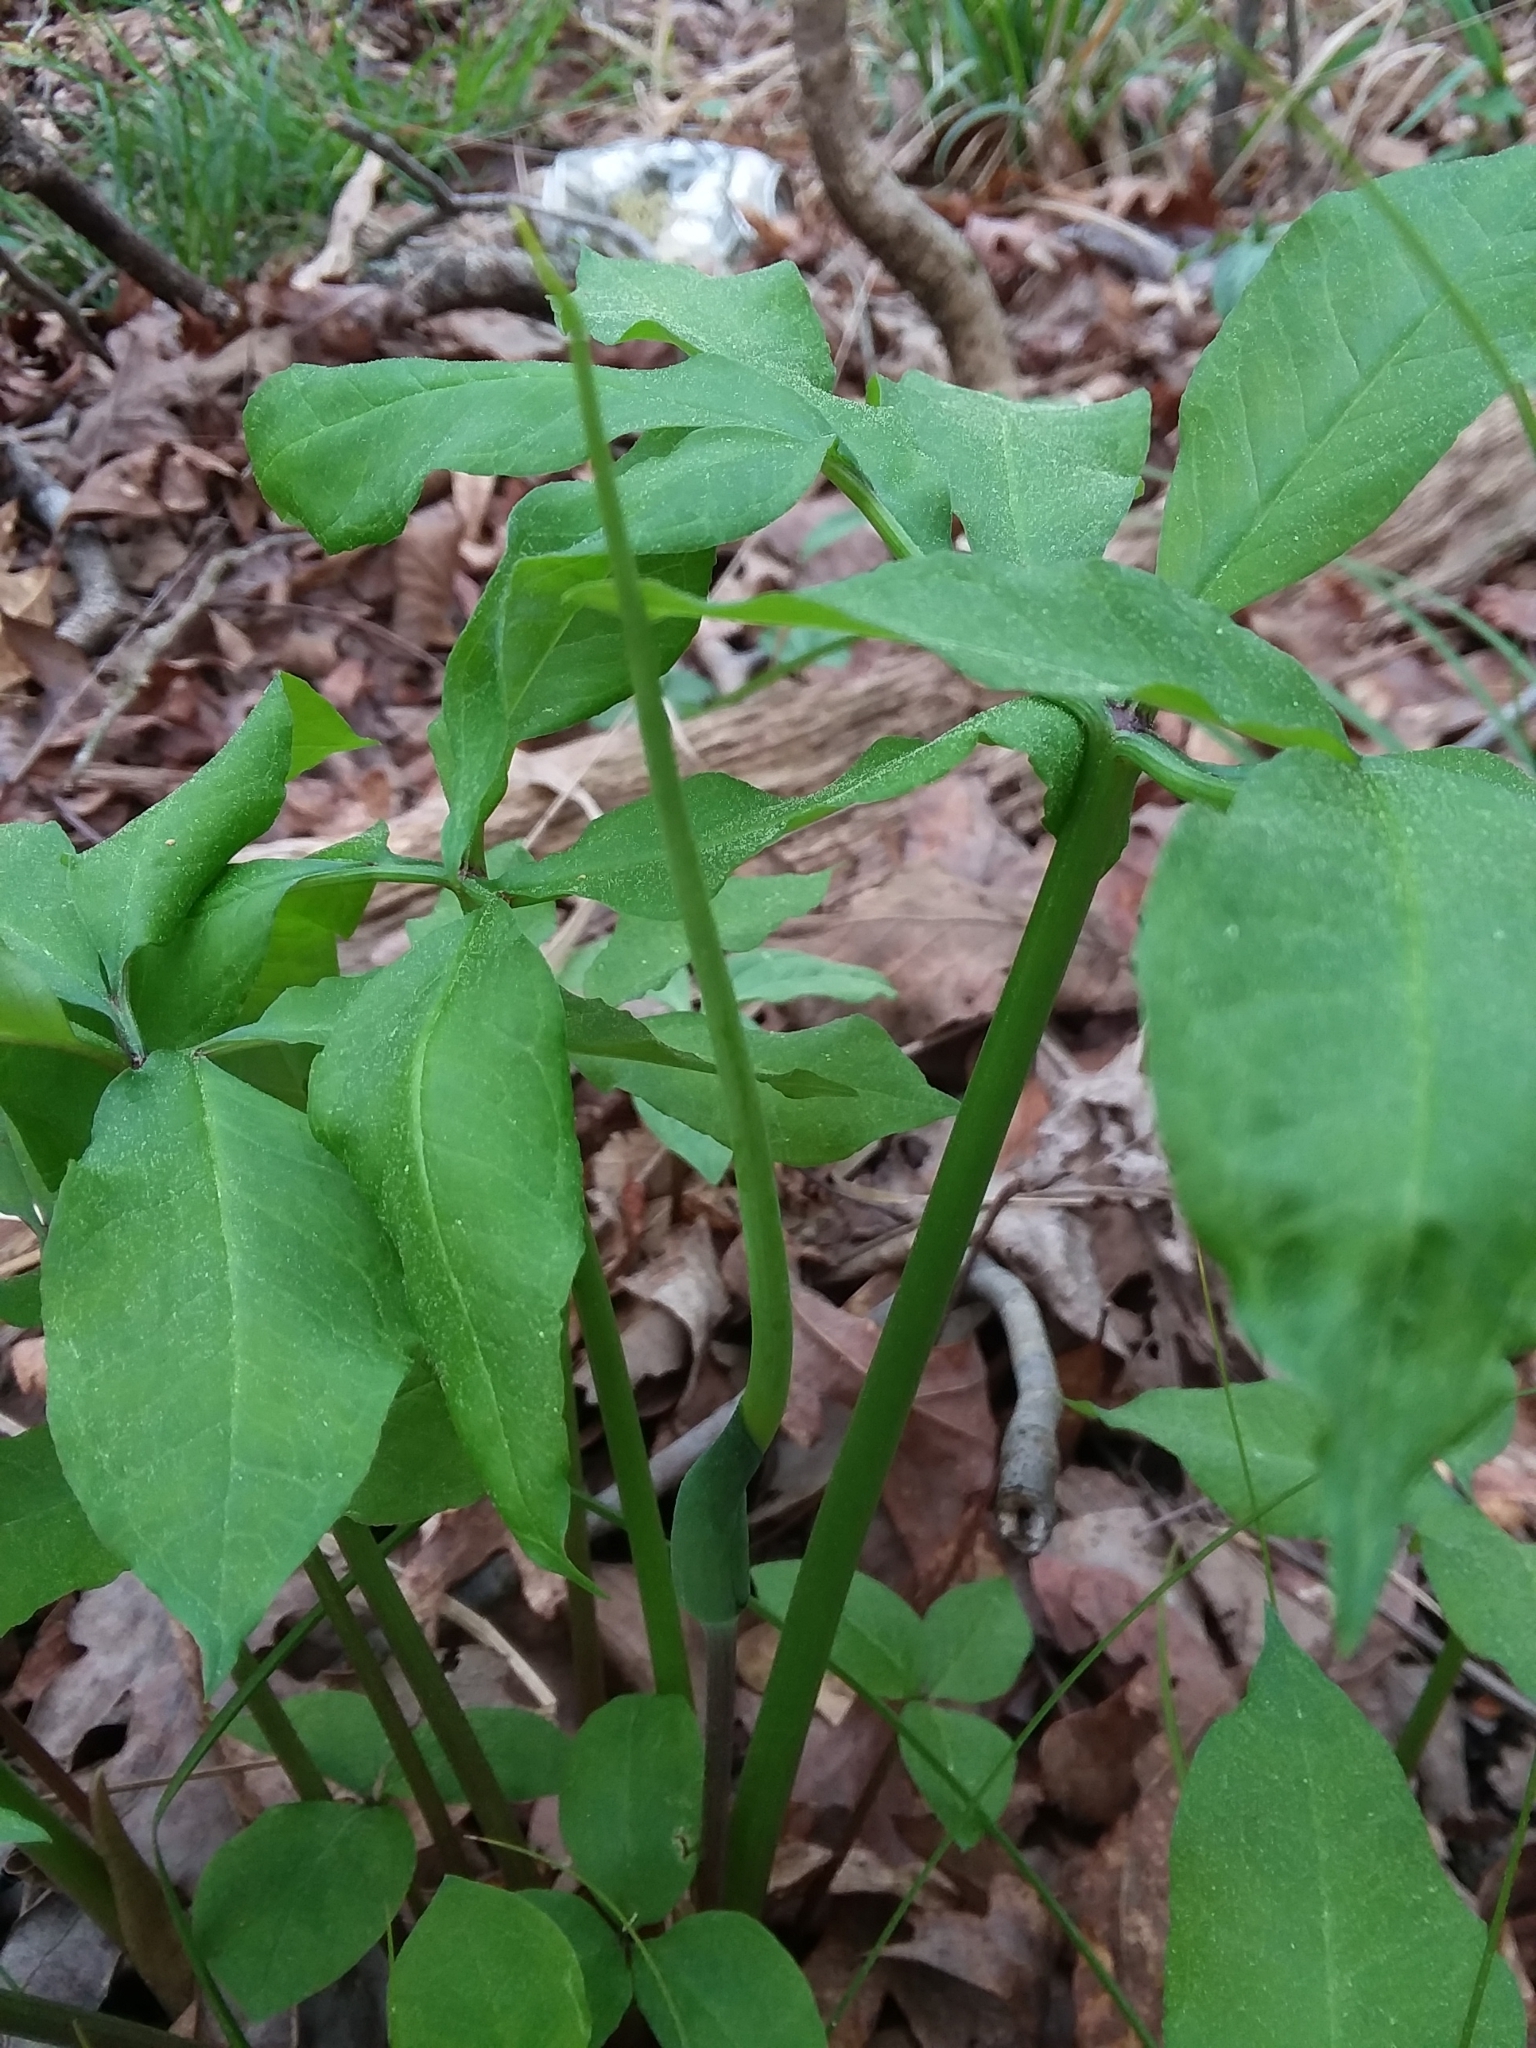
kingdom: Plantae
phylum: Tracheophyta
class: Liliopsida
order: Alismatales
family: Araceae
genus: Arisaema
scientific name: Arisaema dracontium
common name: Dragon-arum
